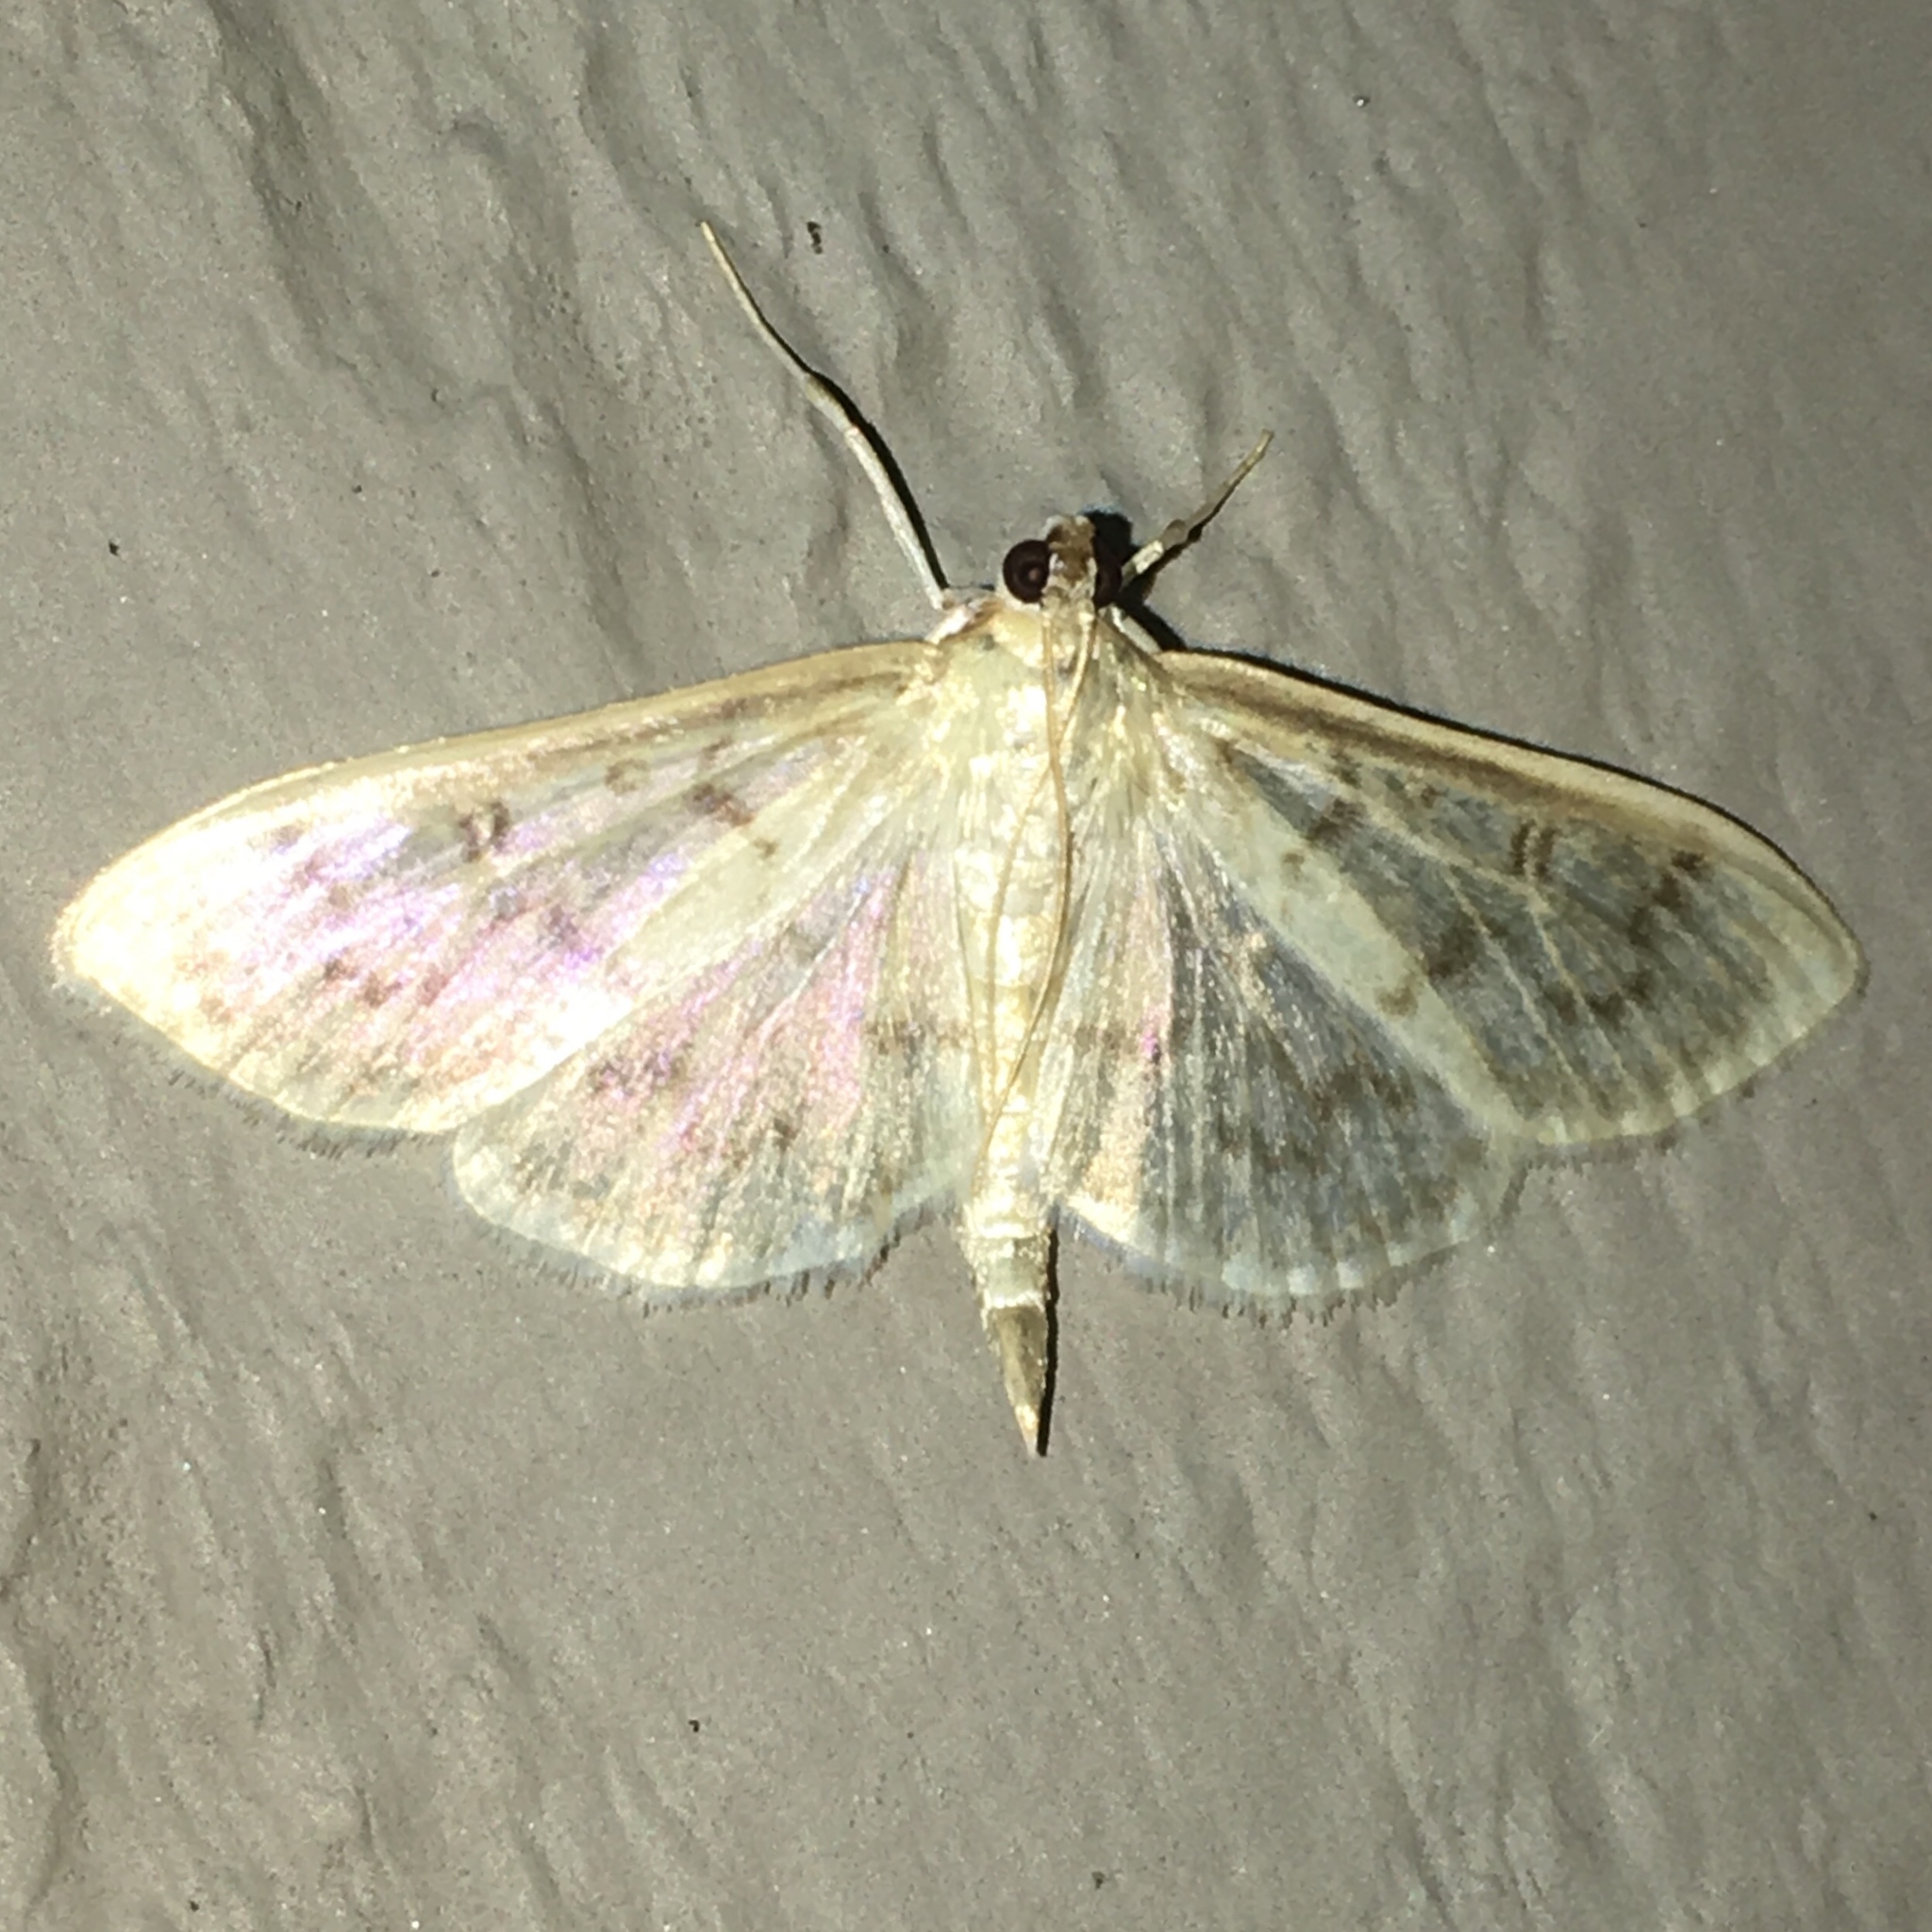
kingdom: Animalia
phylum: Arthropoda
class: Insecta
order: Lepidoptera
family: Crambidae
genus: Herpetogramma
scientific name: Herpetogramma aeglealis
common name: Serpentine webworm moth
